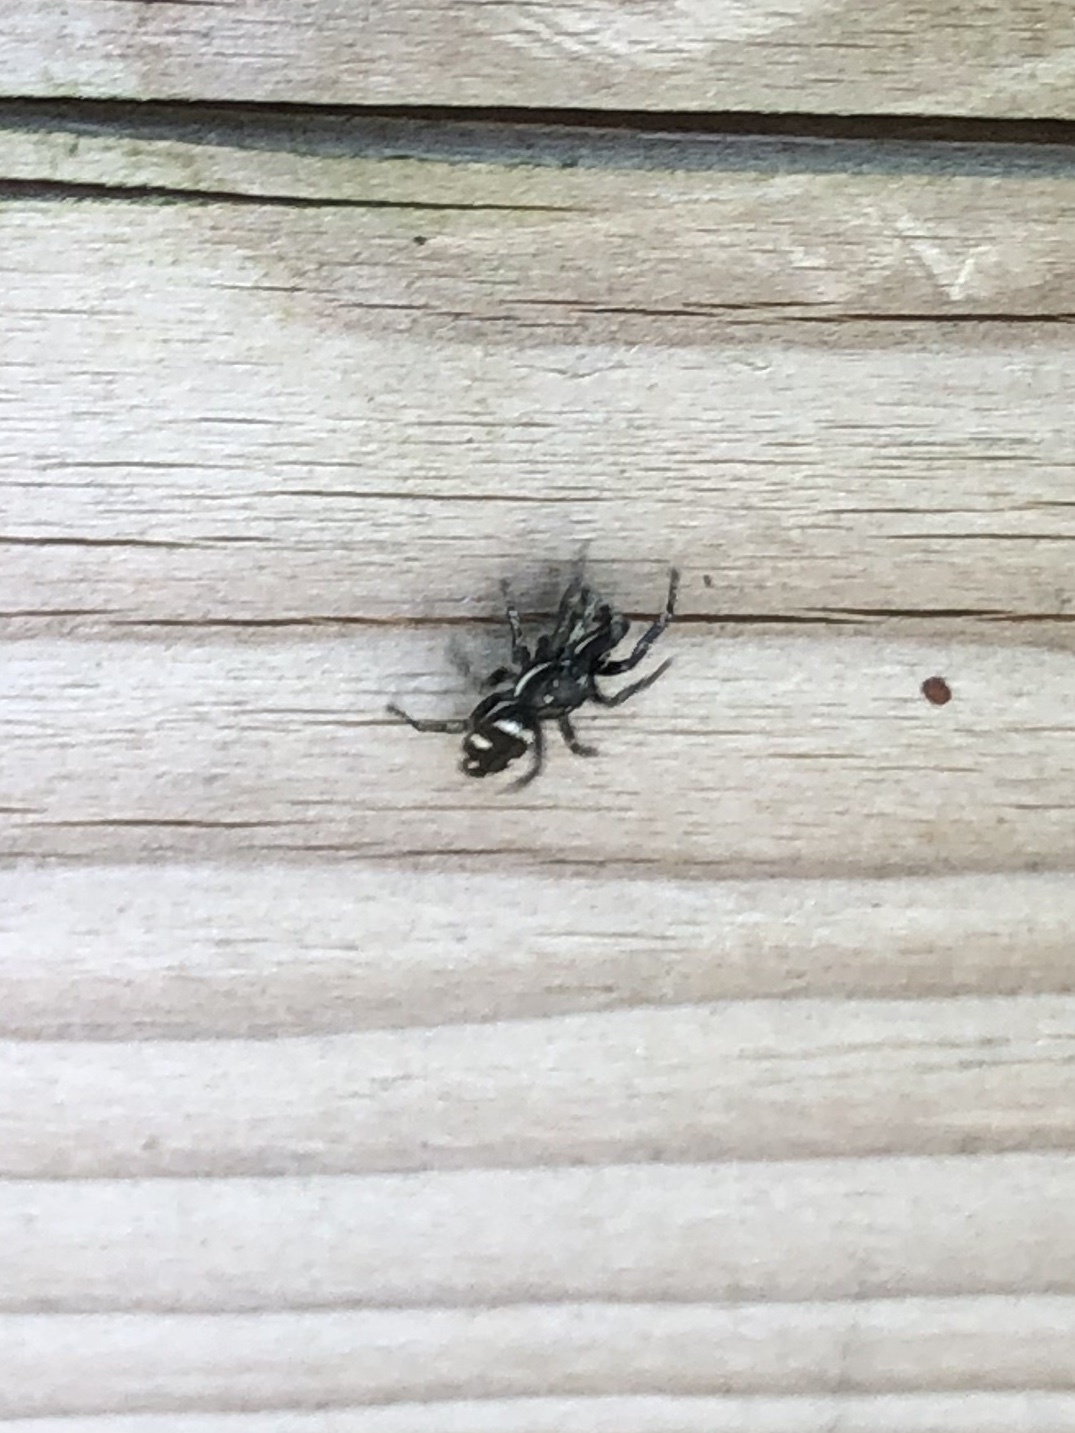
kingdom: Animalia
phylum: Arthropoda
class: Arachnida
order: Araneae
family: Salticidae
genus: Salticus
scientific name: Salticus scenicus
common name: Zebra jumper
